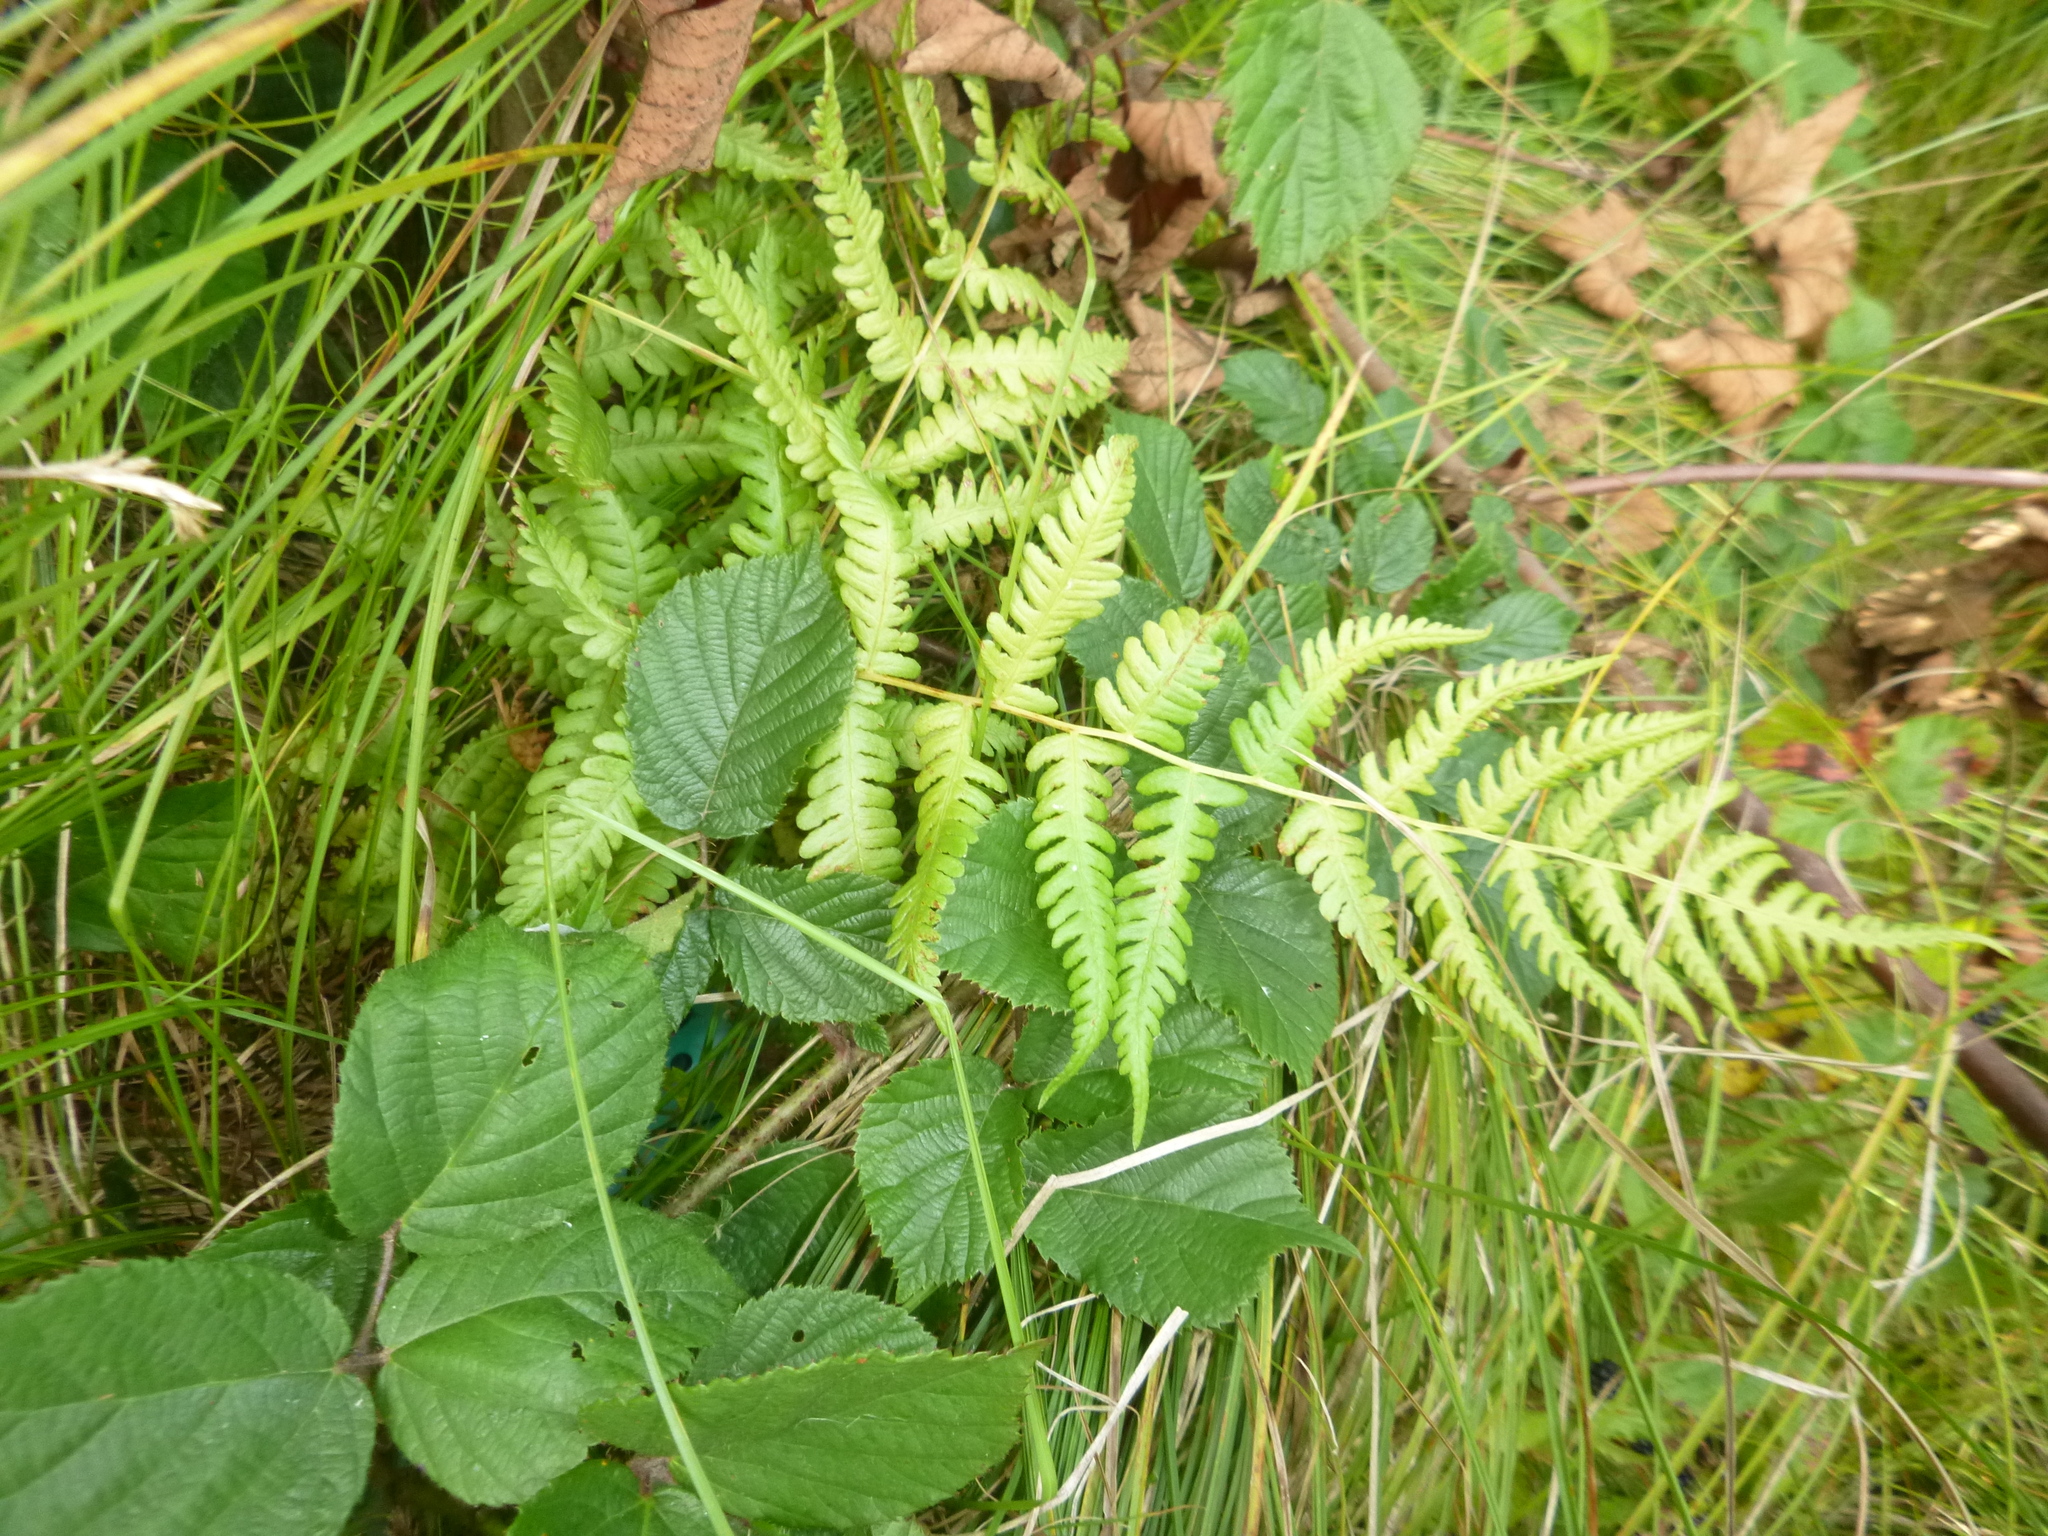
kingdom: Plantae
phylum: Tracheophyta
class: Polypodiopsida
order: Polypodiales
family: Thelypteridaceae
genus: Oreopteris
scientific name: Oreopteris limbosperma
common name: Lemon-scented fern
